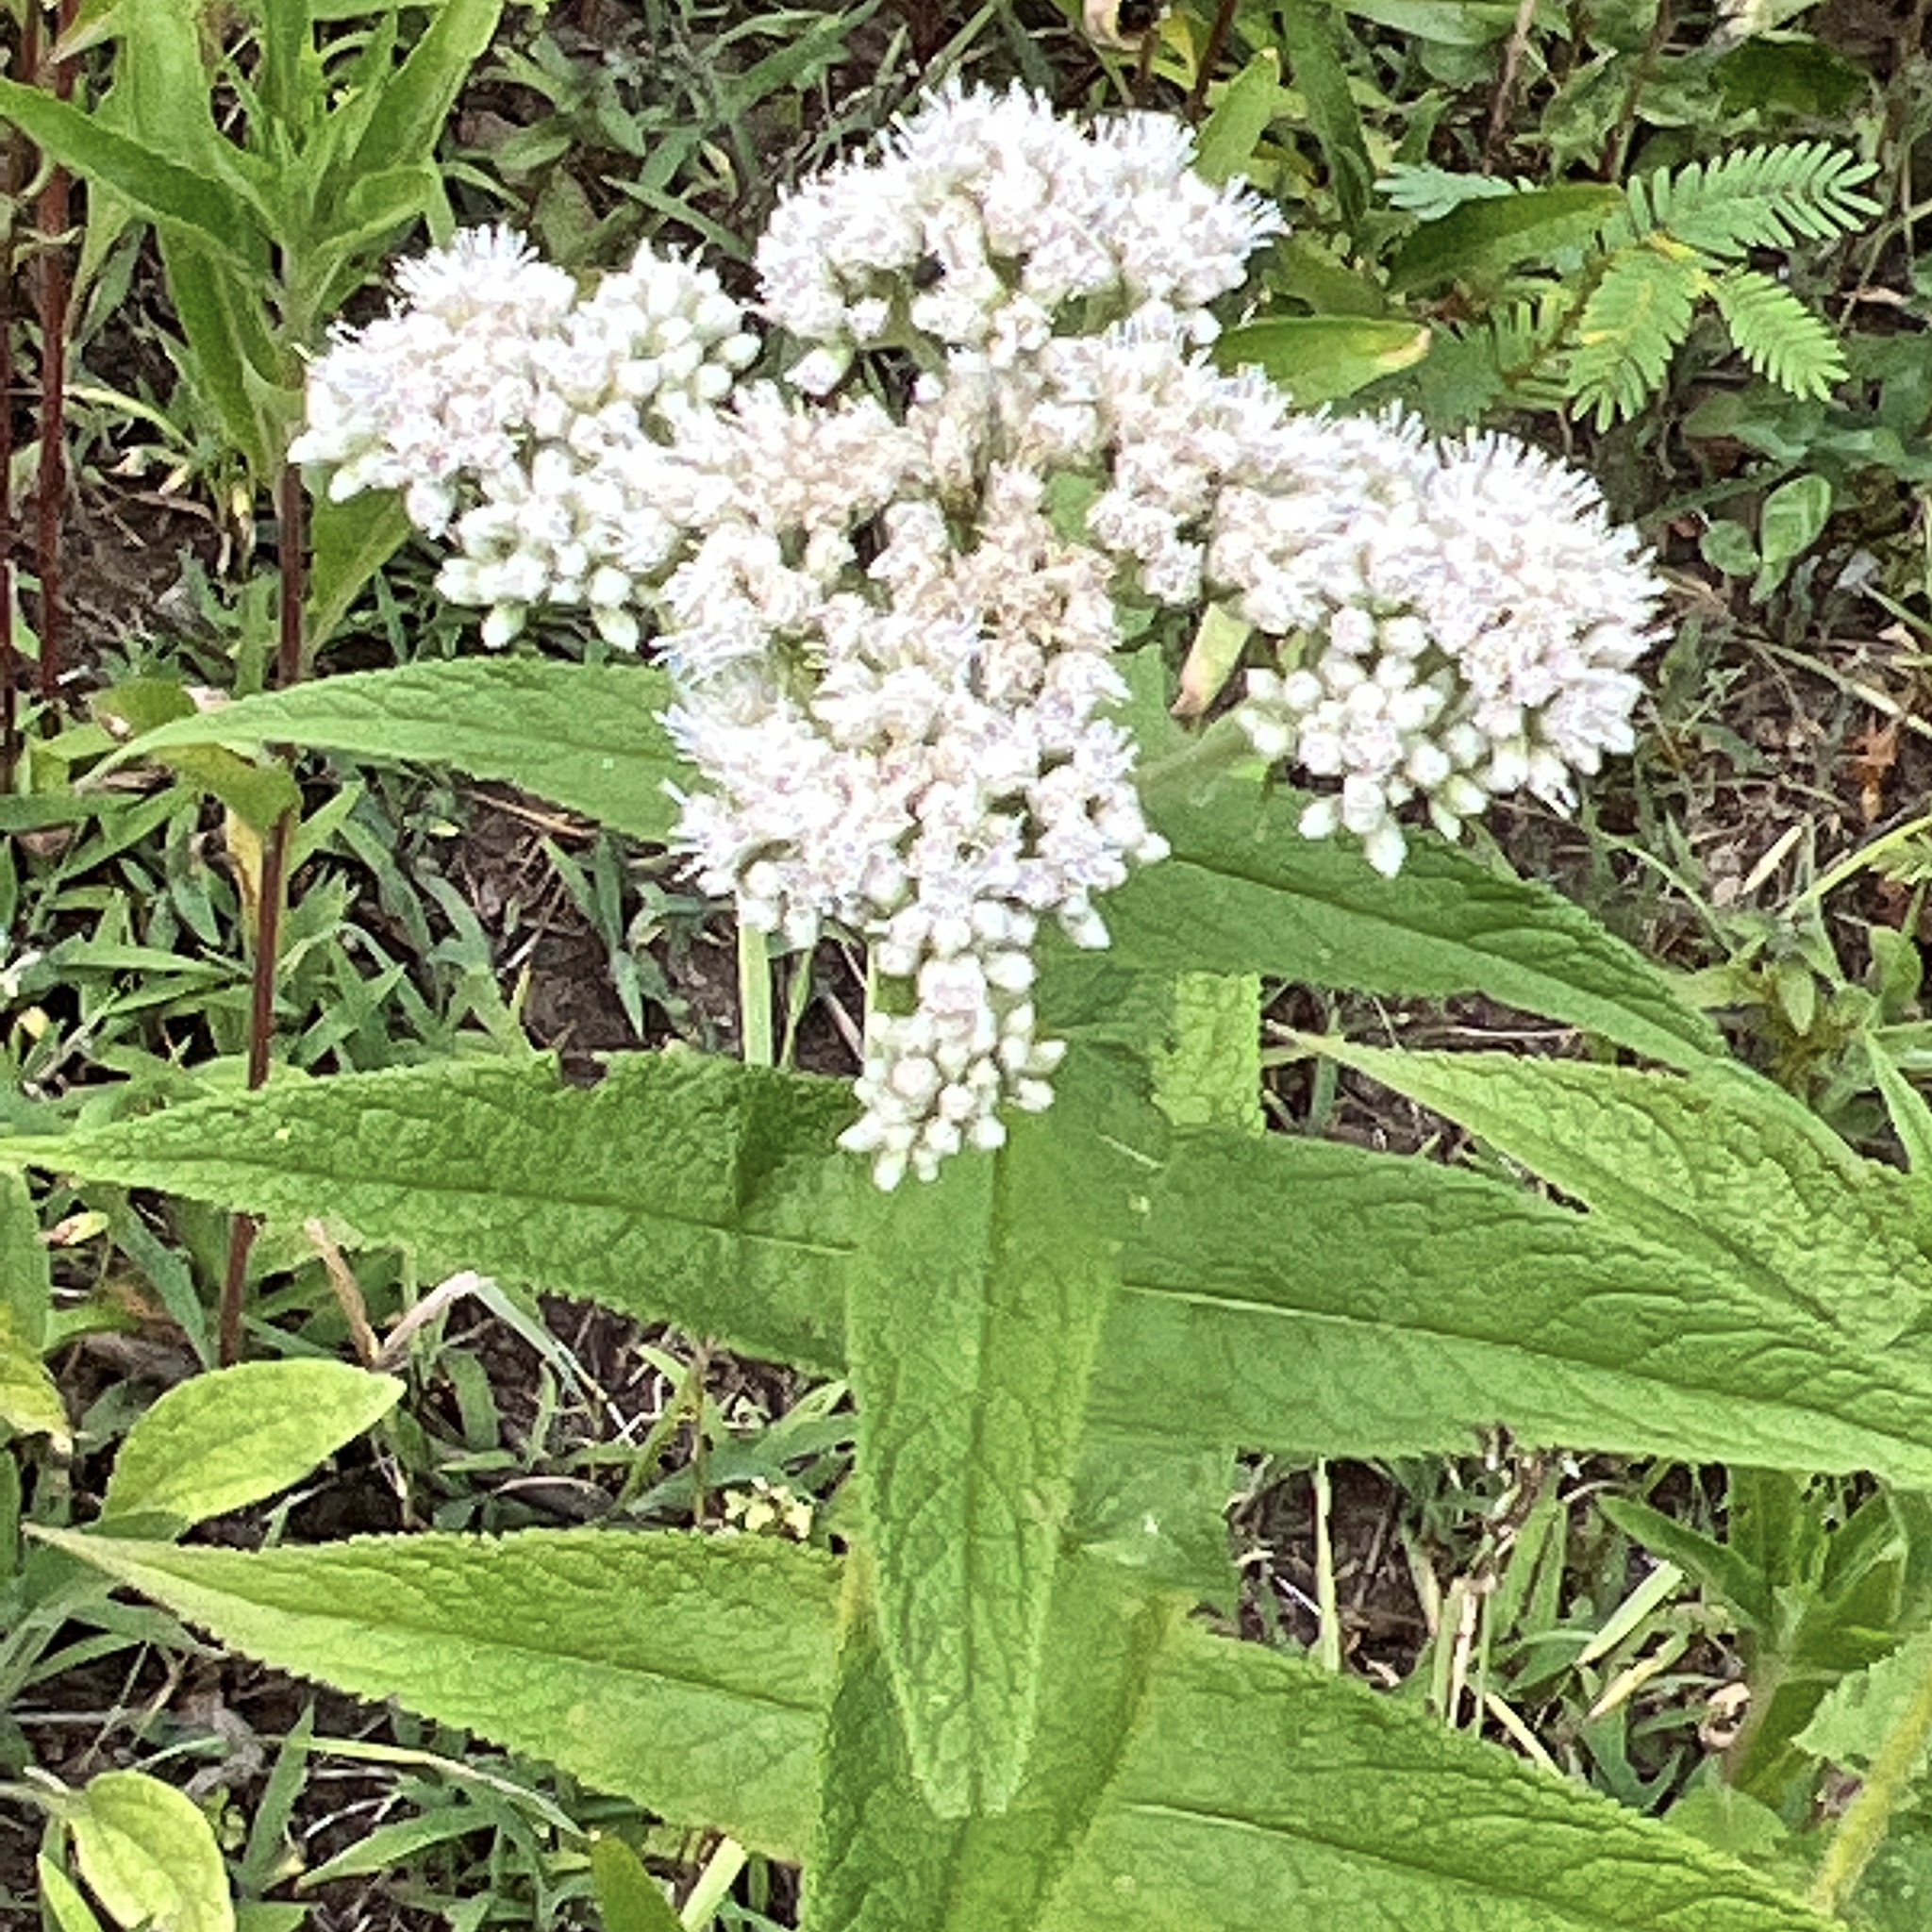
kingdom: Plantae
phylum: Tracheophyta
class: Magnoliopsida
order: Asterales
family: Asteraceae
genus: Eupatorium
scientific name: Eupatorium perfoliatum
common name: Boneset
